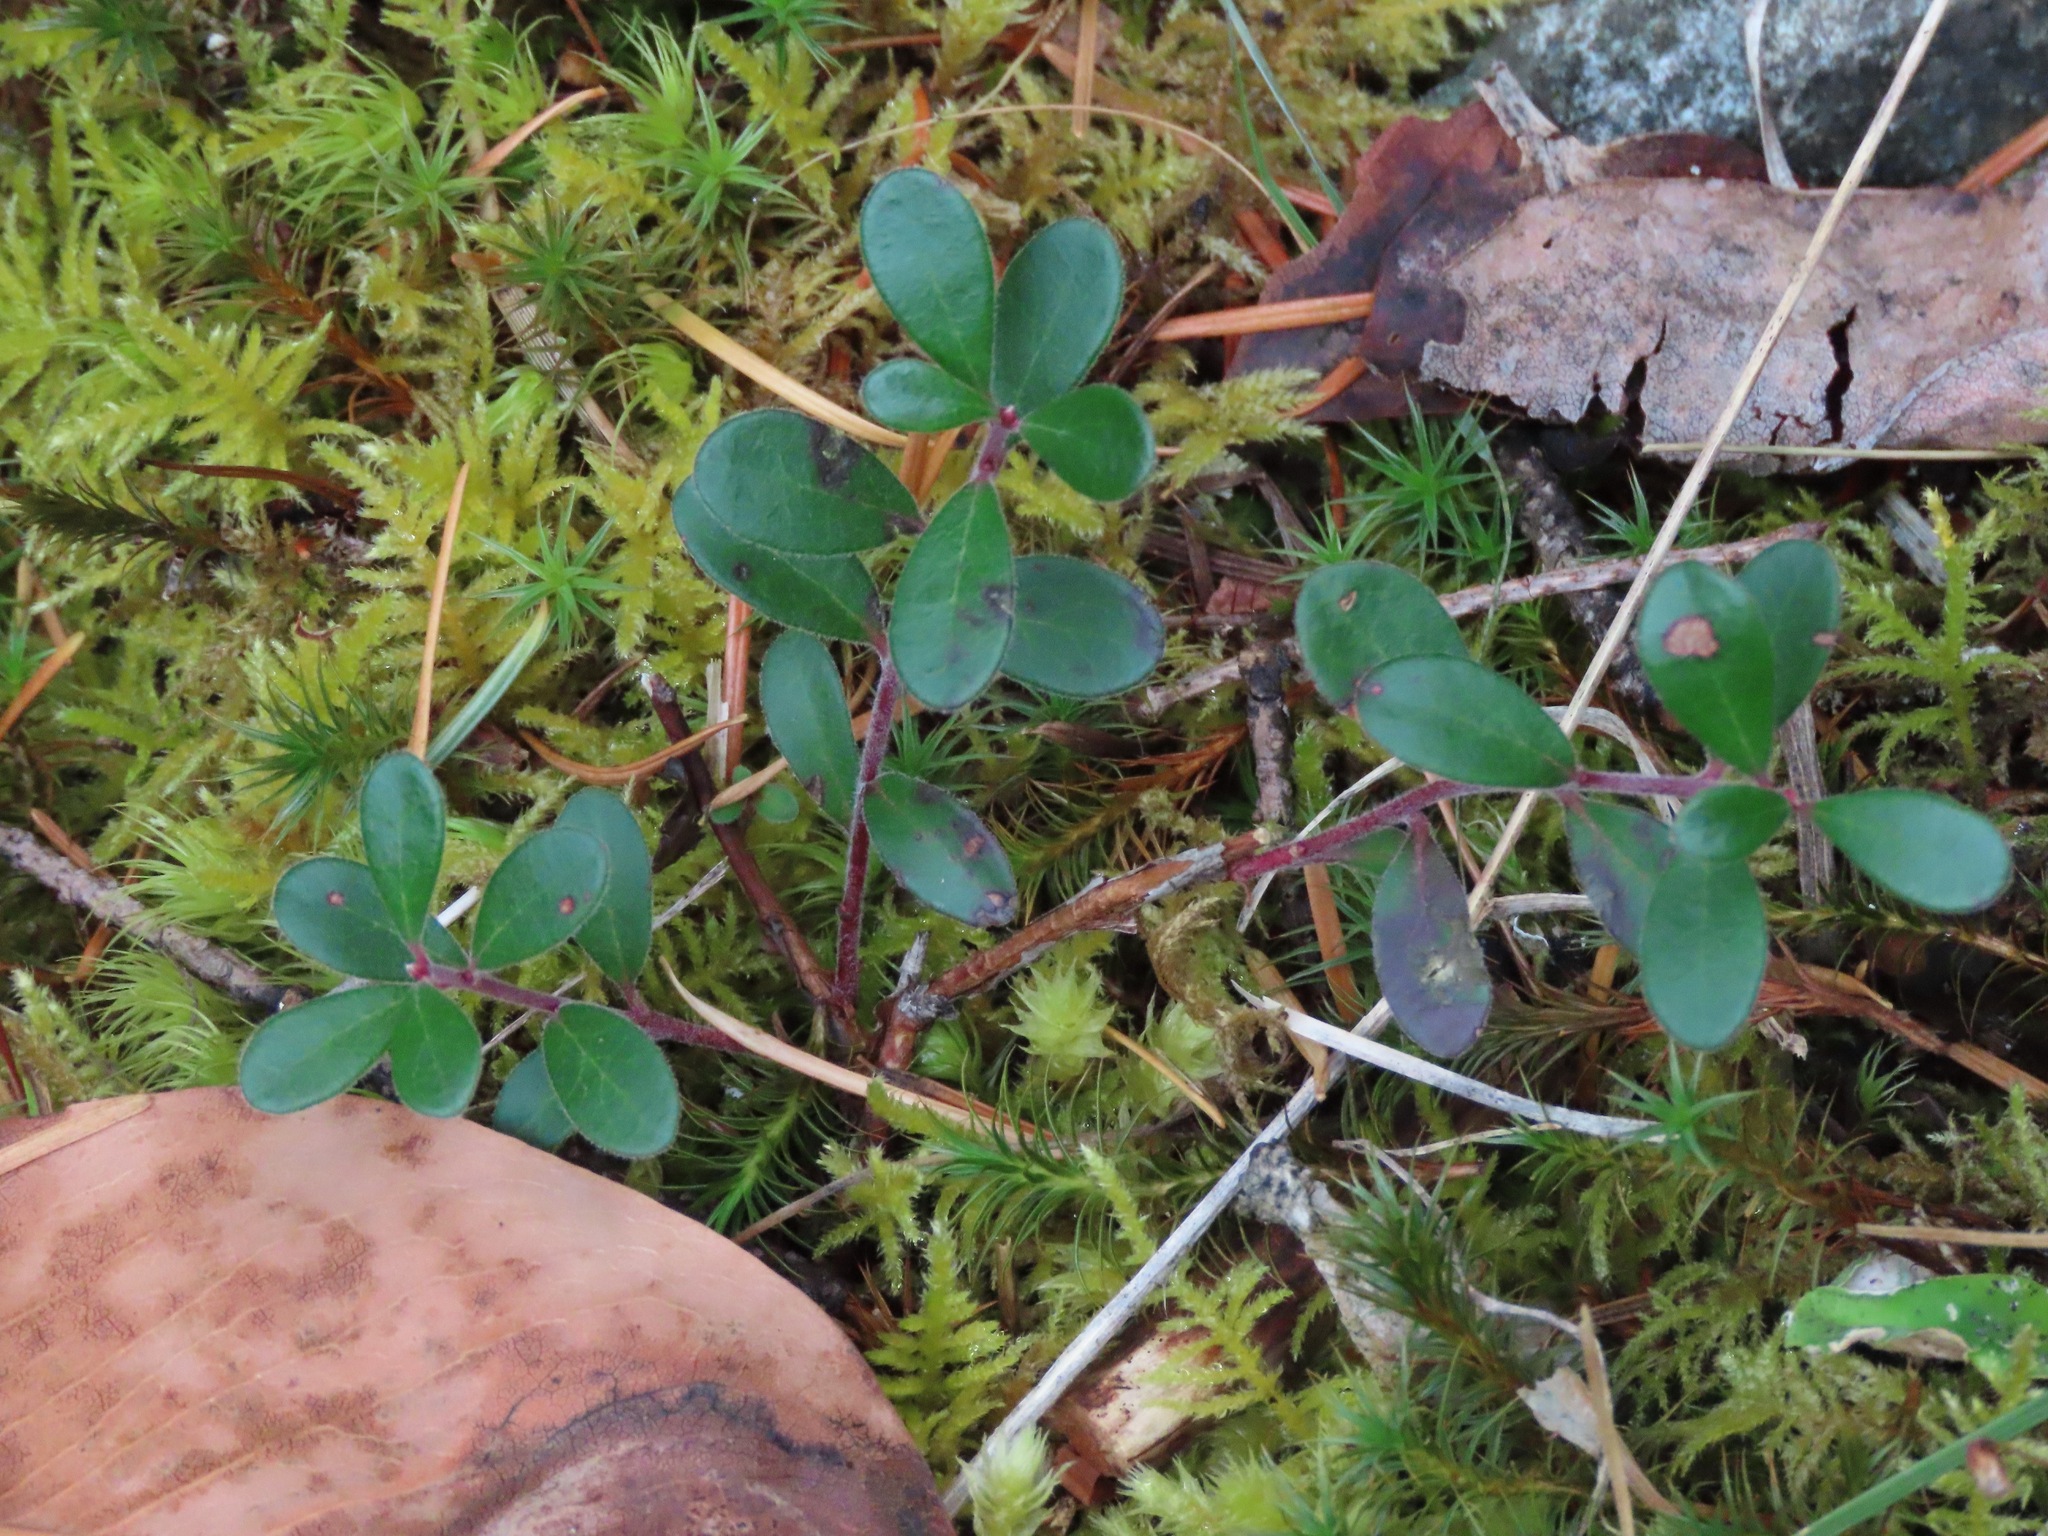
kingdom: Plantae
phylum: Tracheophyta
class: Magnoliopsida
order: Ericales
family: Ericaceae
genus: Arctostaphylos
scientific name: Arctostaphylos uva-ursi
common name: Bearberry
